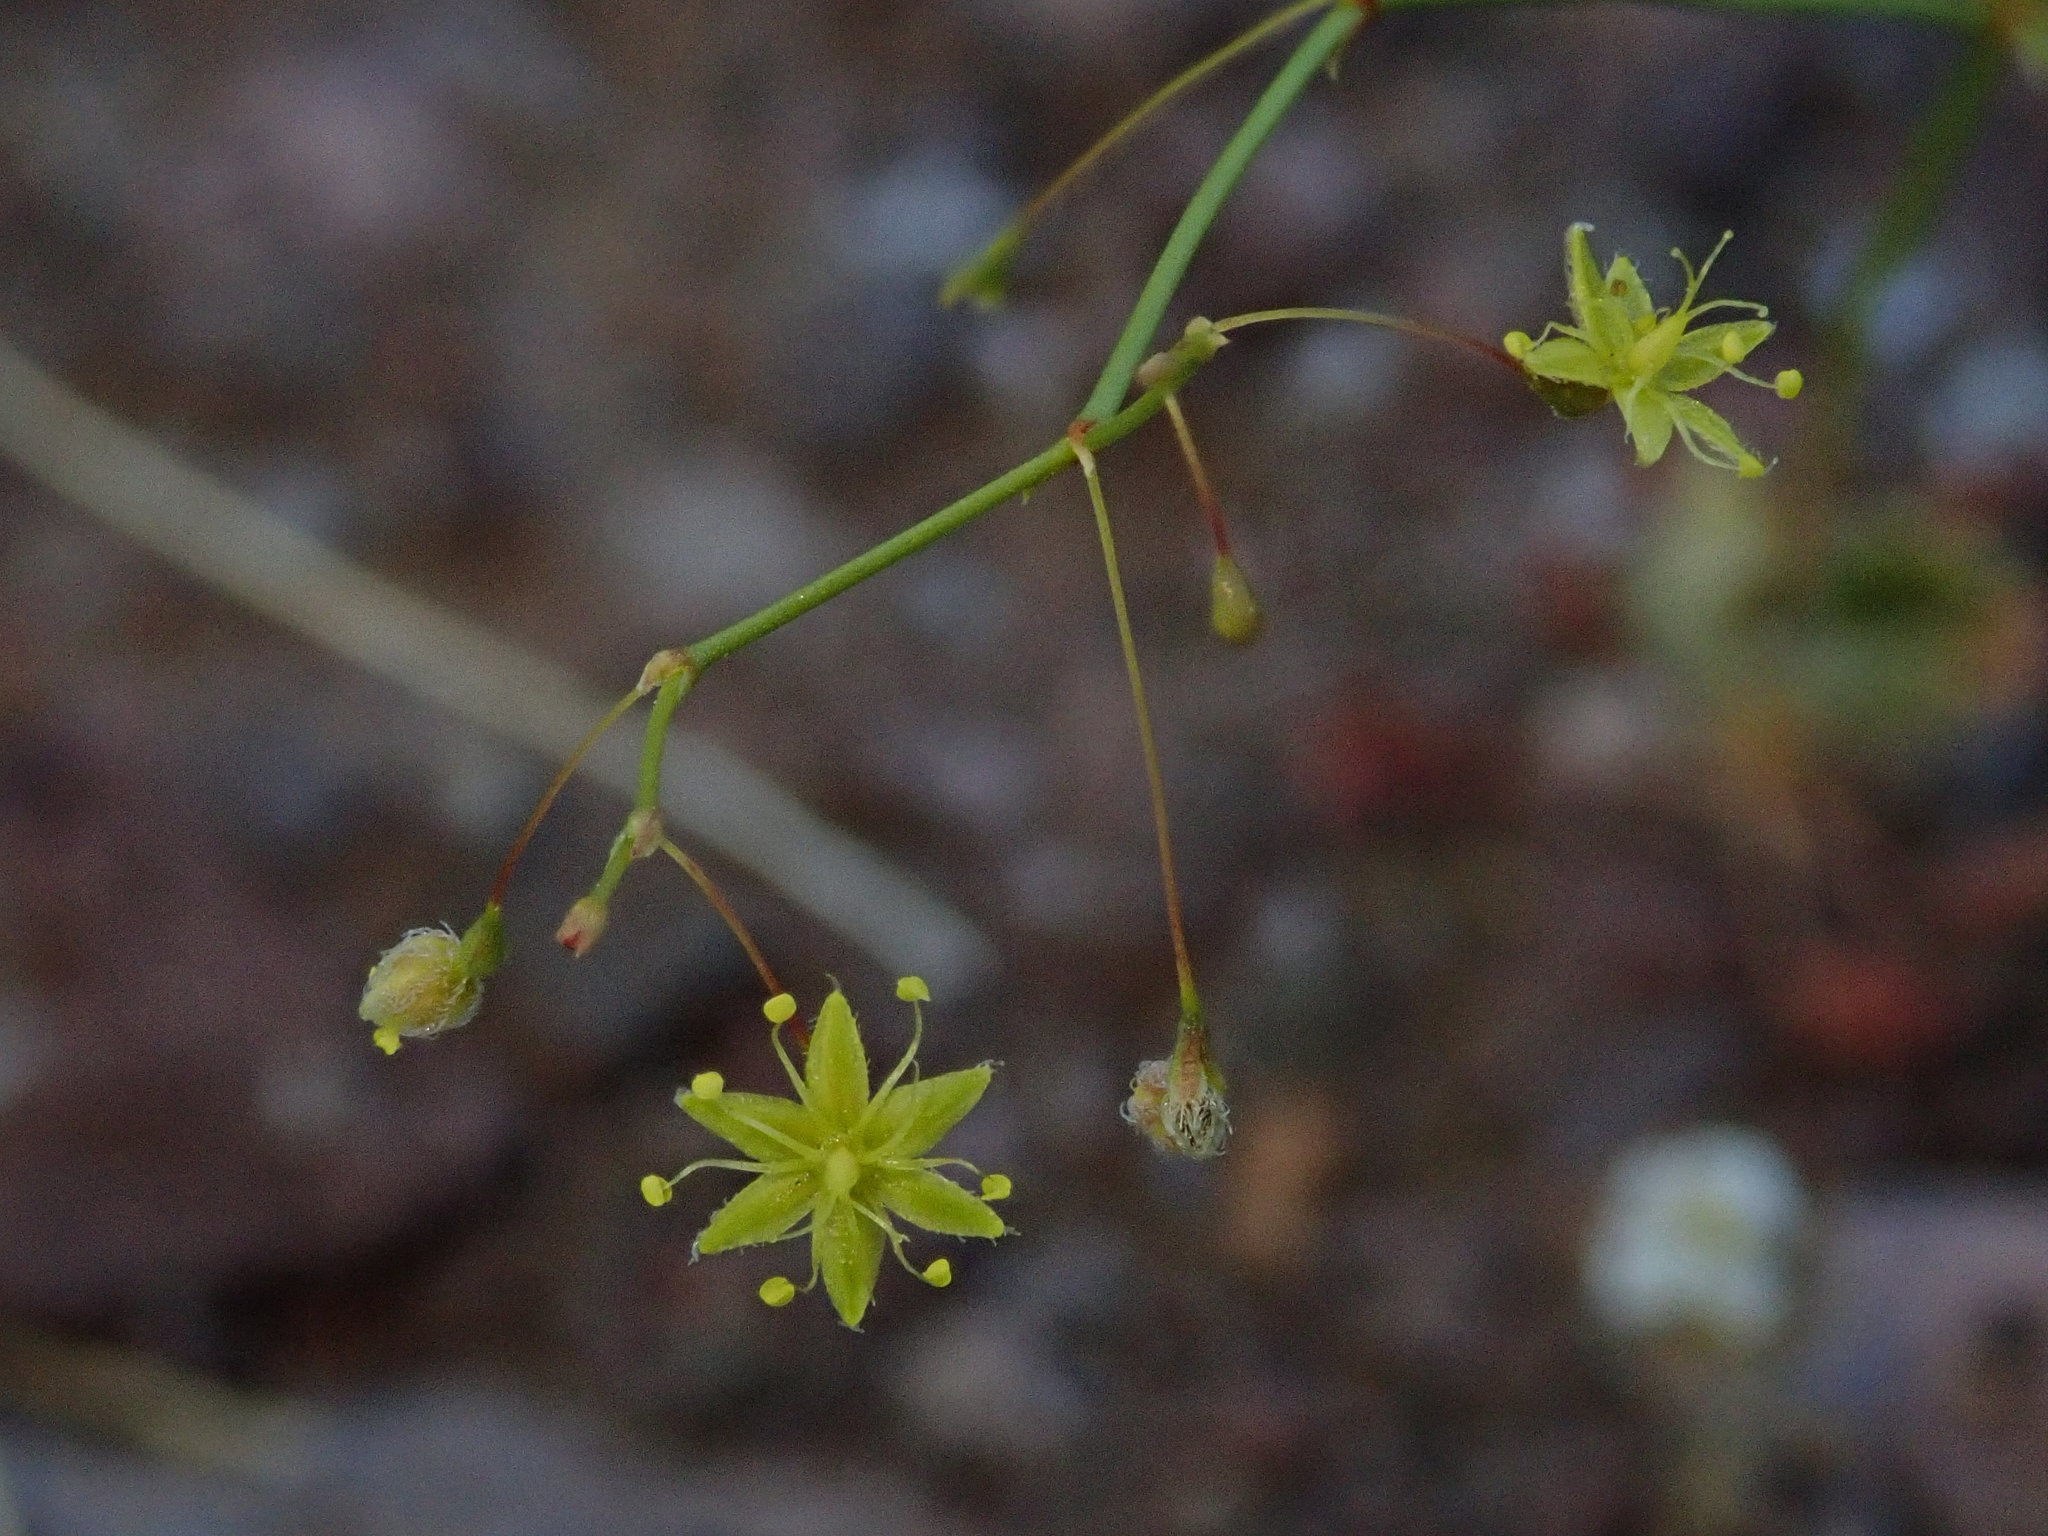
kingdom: Plantae
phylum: Tracheophyta
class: Magnoliopsida
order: Caryophyllales
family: Polygonaceae
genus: Eriogonum
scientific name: Eriogonum trichopes
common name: Little desert trumpet
